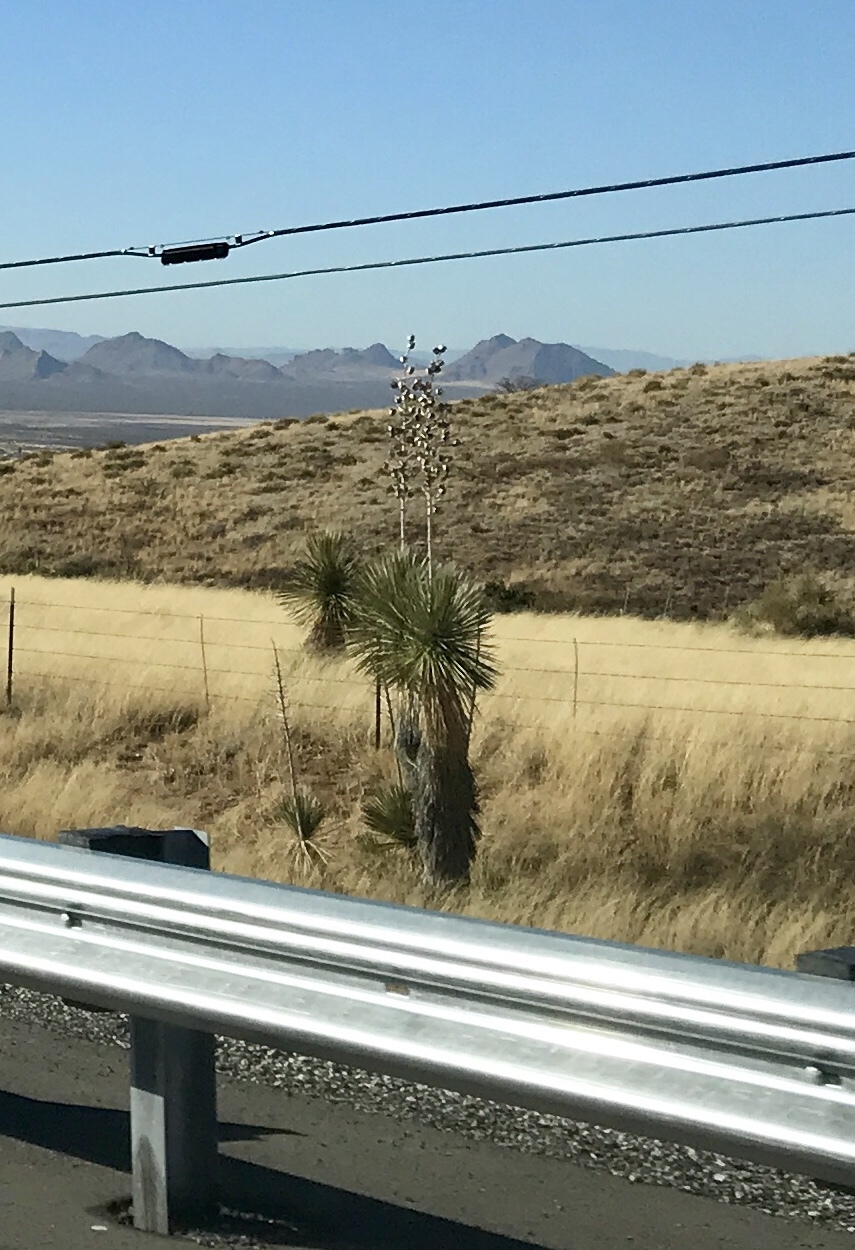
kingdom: Plantae
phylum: Tracheophyta
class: Liliopsida
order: Asparagales
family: Asparagaceae
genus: Yucca
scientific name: Yucca elata
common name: Palmella
